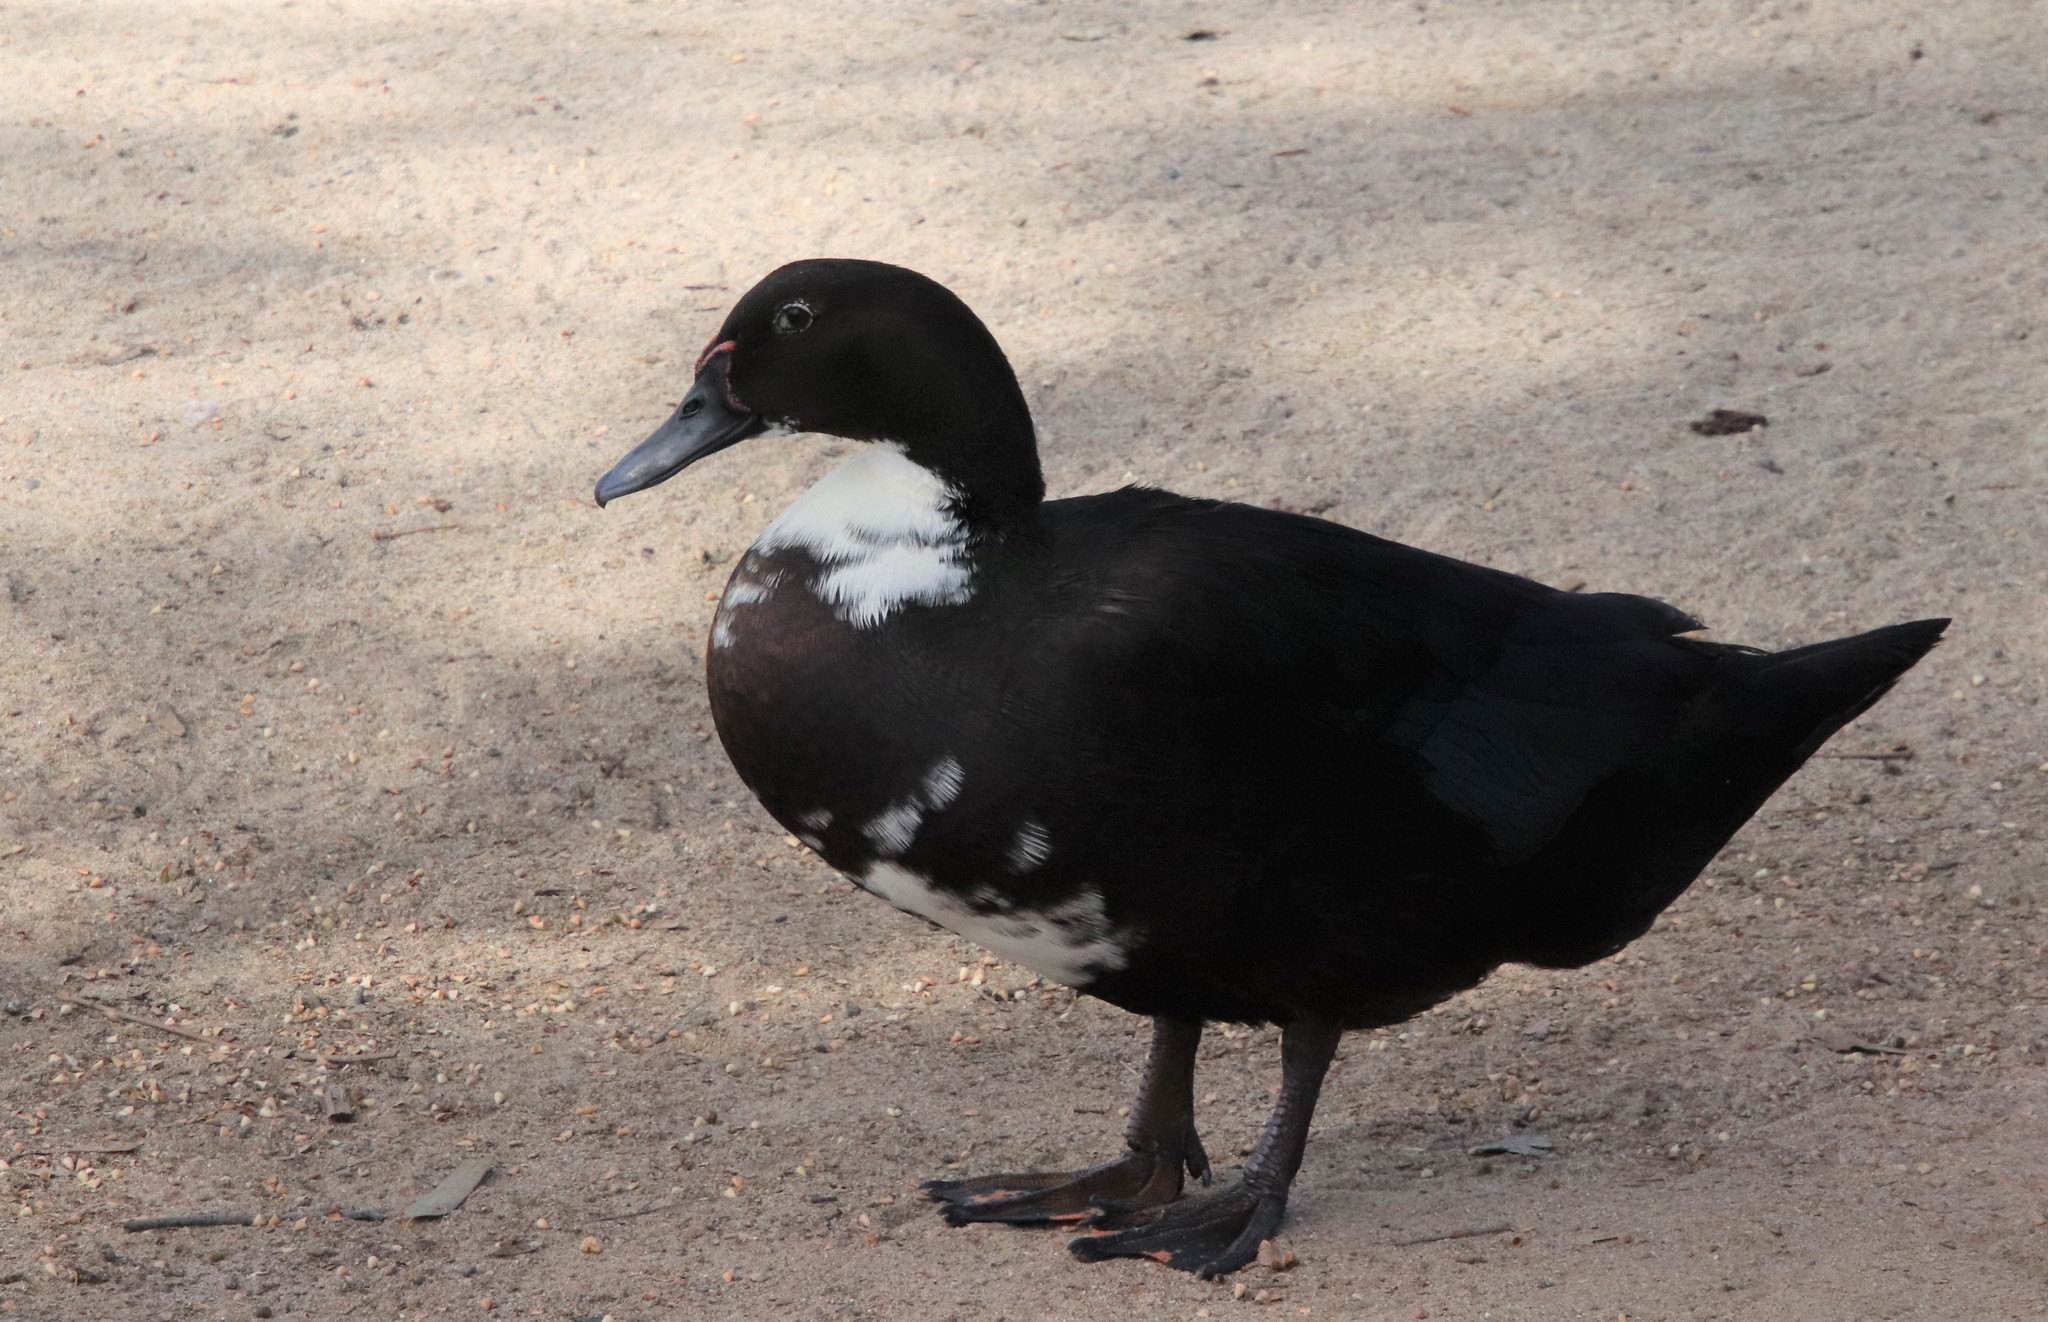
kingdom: Animalia
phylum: Chordata
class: Aves
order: Anseriformes
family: Anatidae
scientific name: Anatidae
